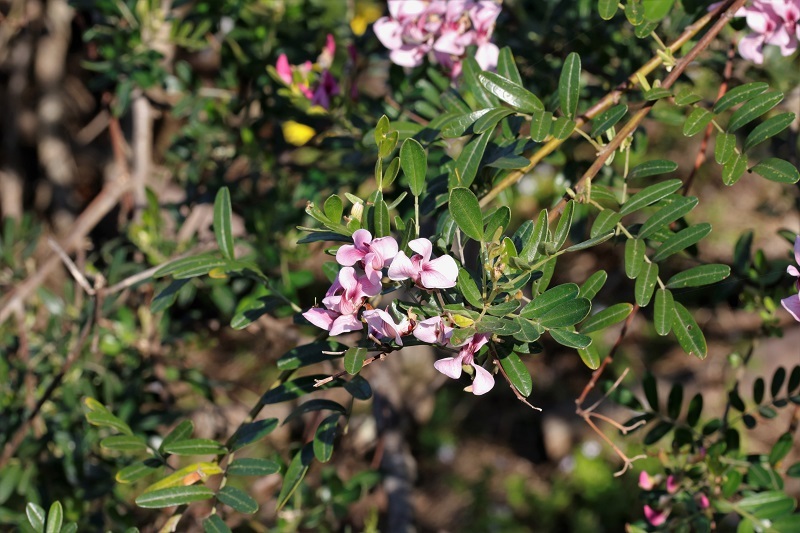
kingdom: Plantae
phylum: Tracheophyta
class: Magnoliopsida
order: Fabales
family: Fabaceae
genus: Virgilia
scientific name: Virgilia divaricata
